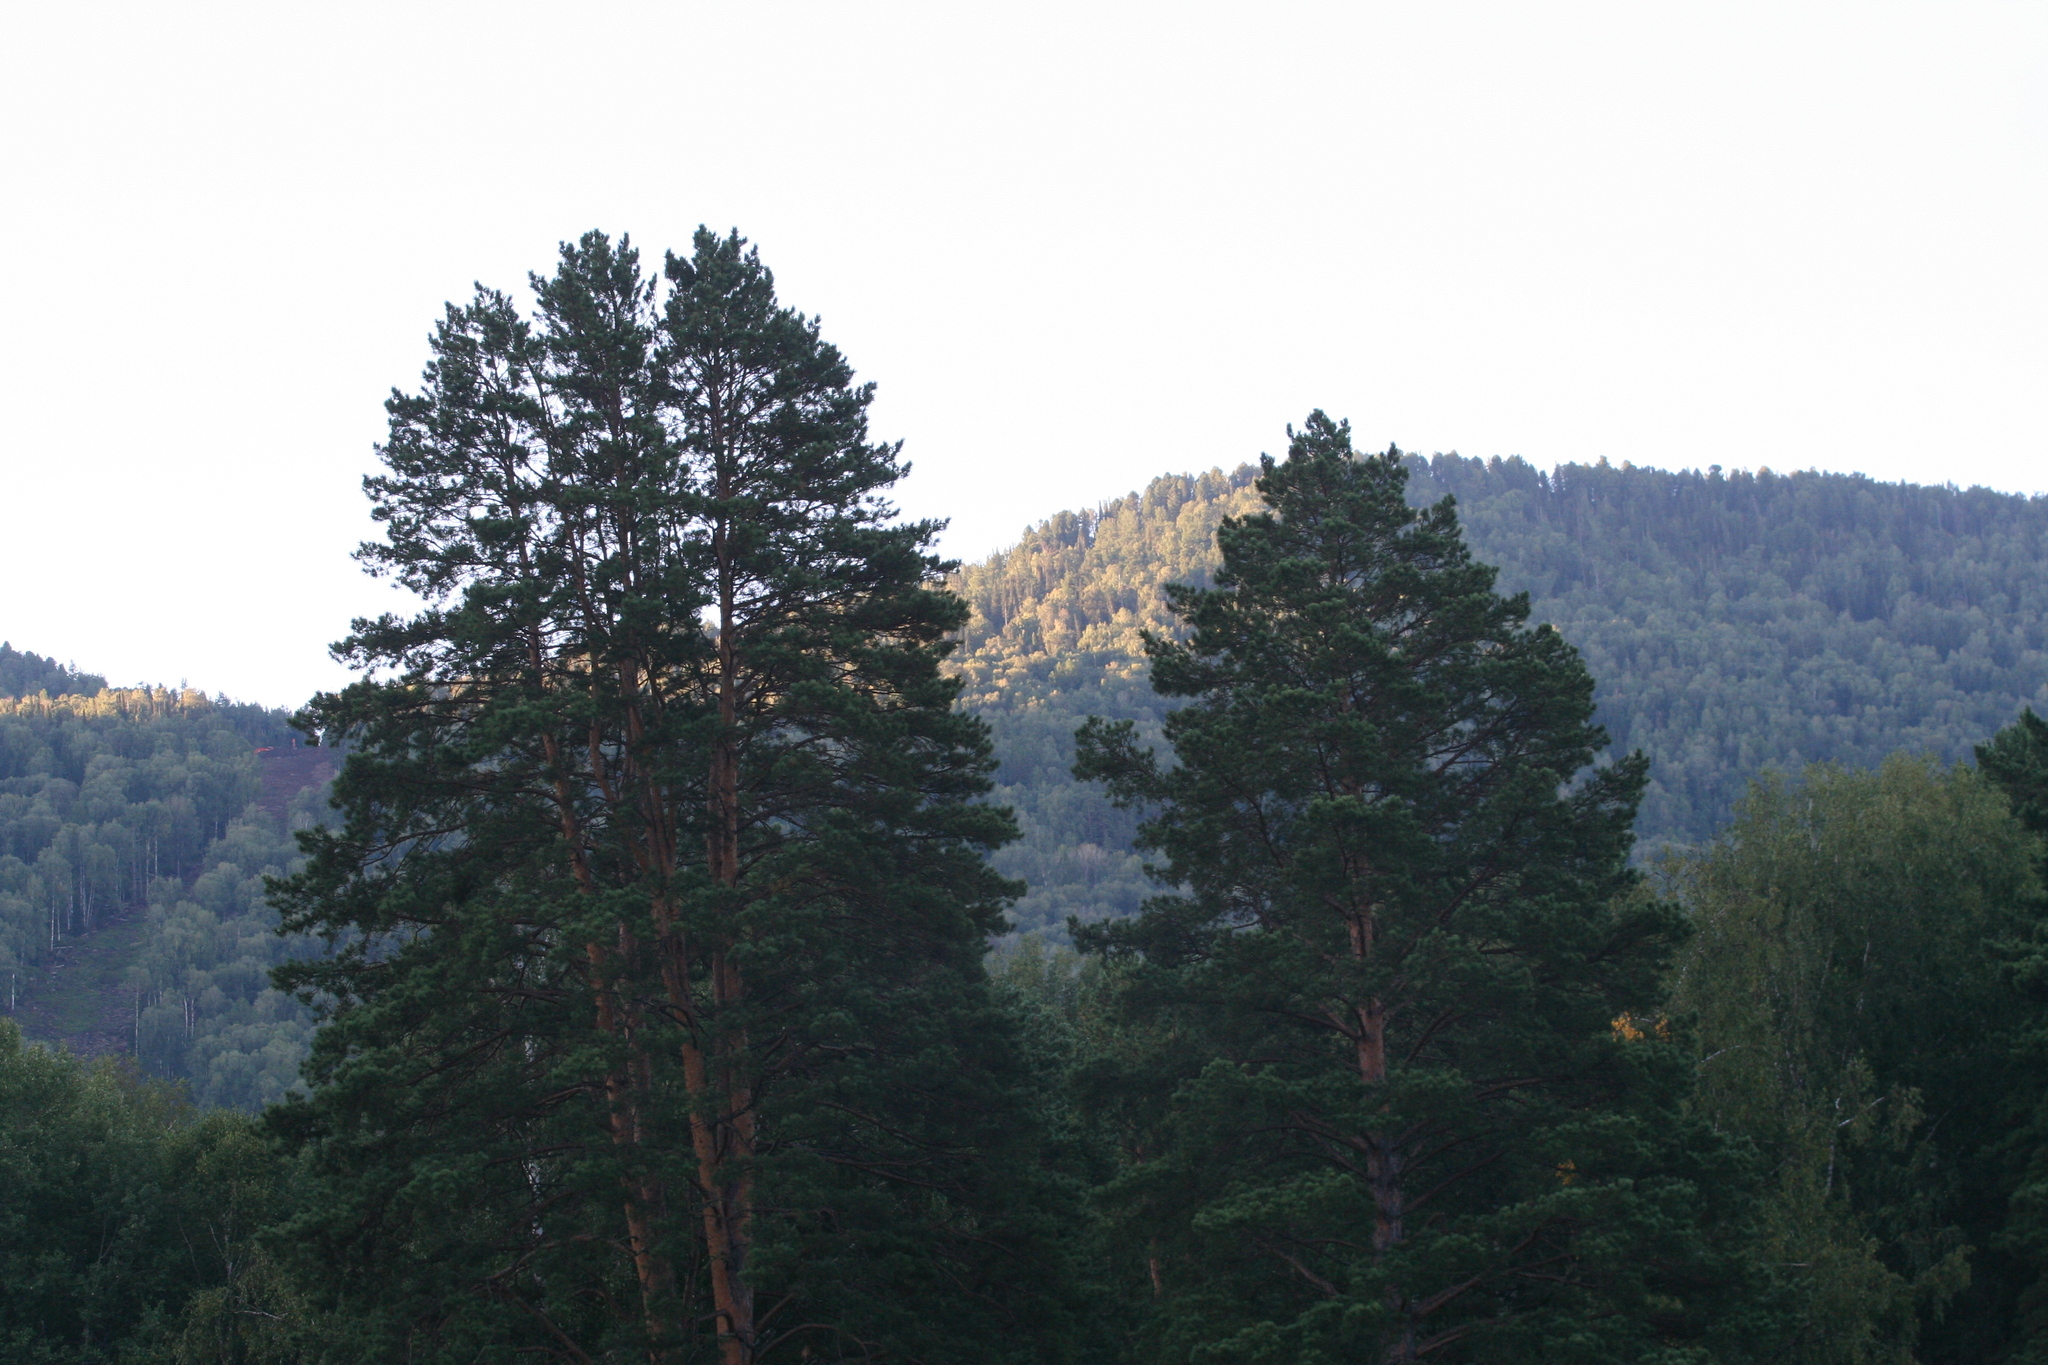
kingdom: Plantae
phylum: Tracheophyta
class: Pinopsida
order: Pinales
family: Pinaceae
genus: Pinus
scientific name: Pinus sylvestris
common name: Scots pine
